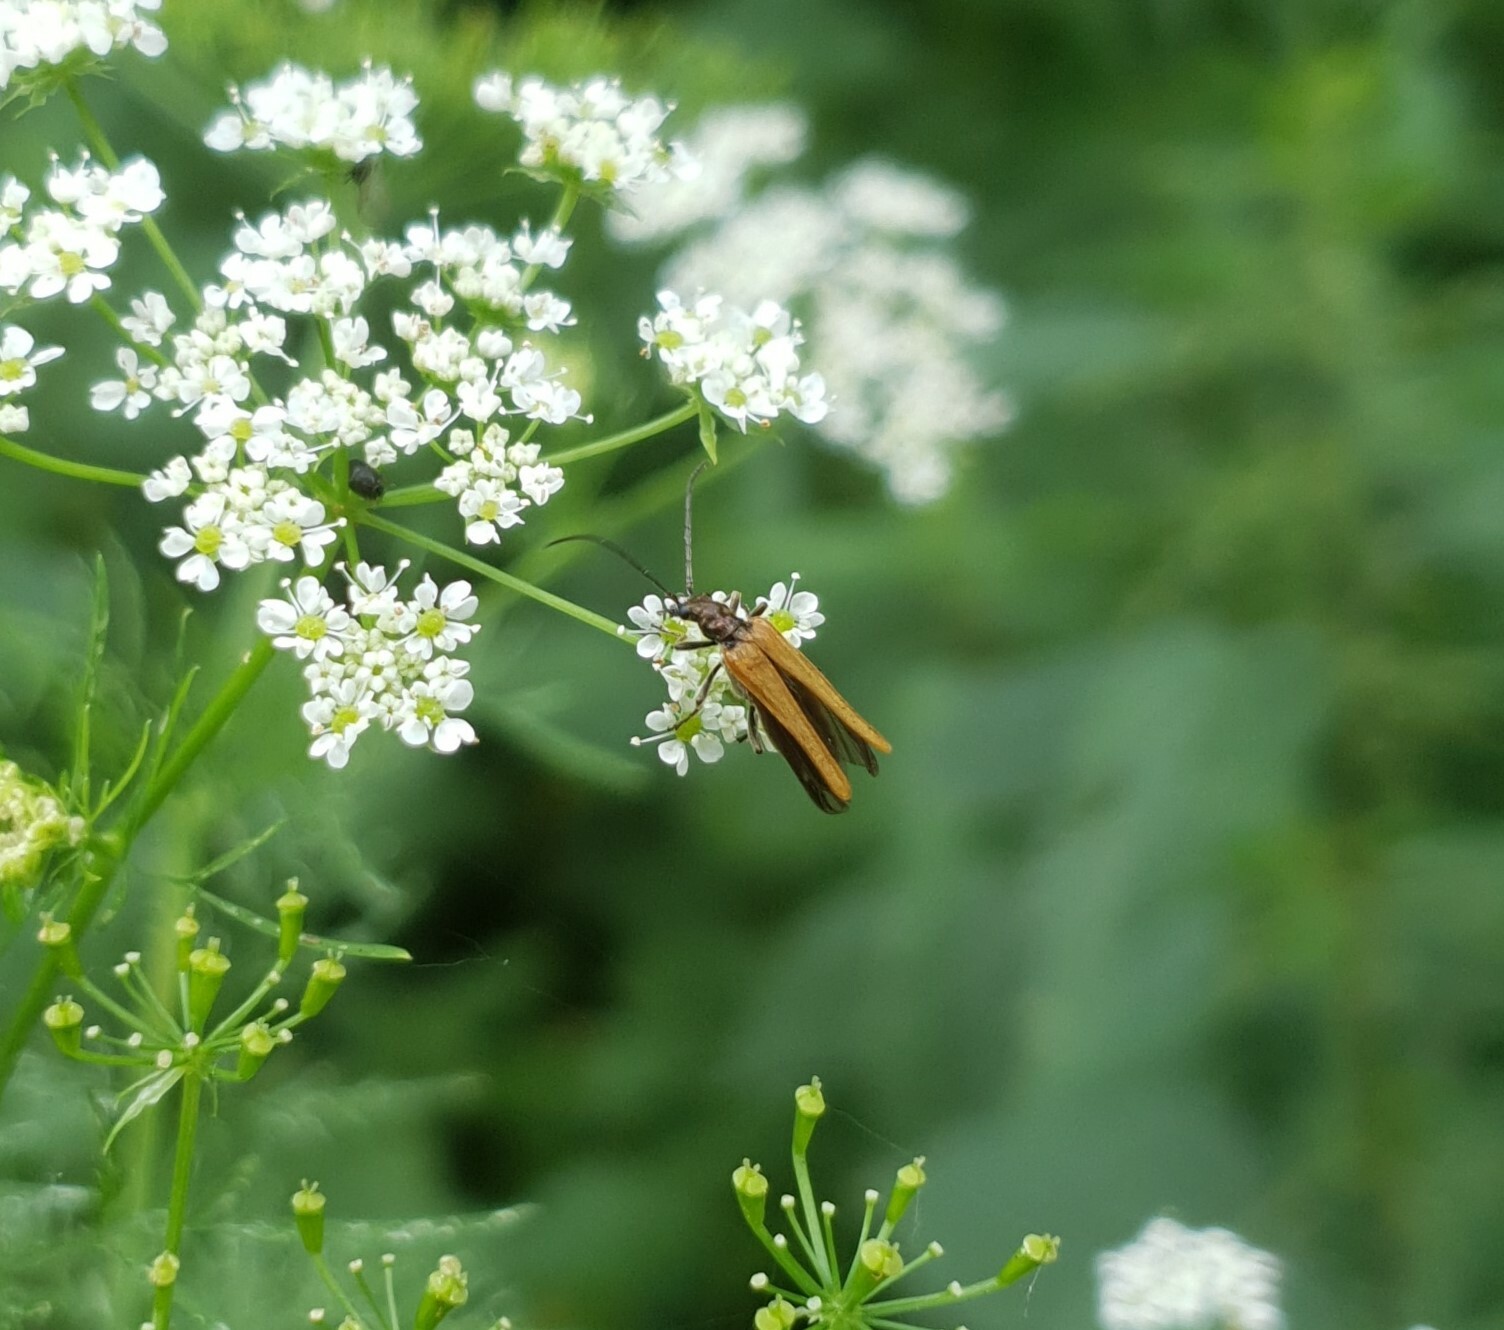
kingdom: Animalia
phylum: Arthropoda
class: Insecta
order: Coleoptera
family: Oedemeridae
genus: Oedemera
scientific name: Oedemera femorata
